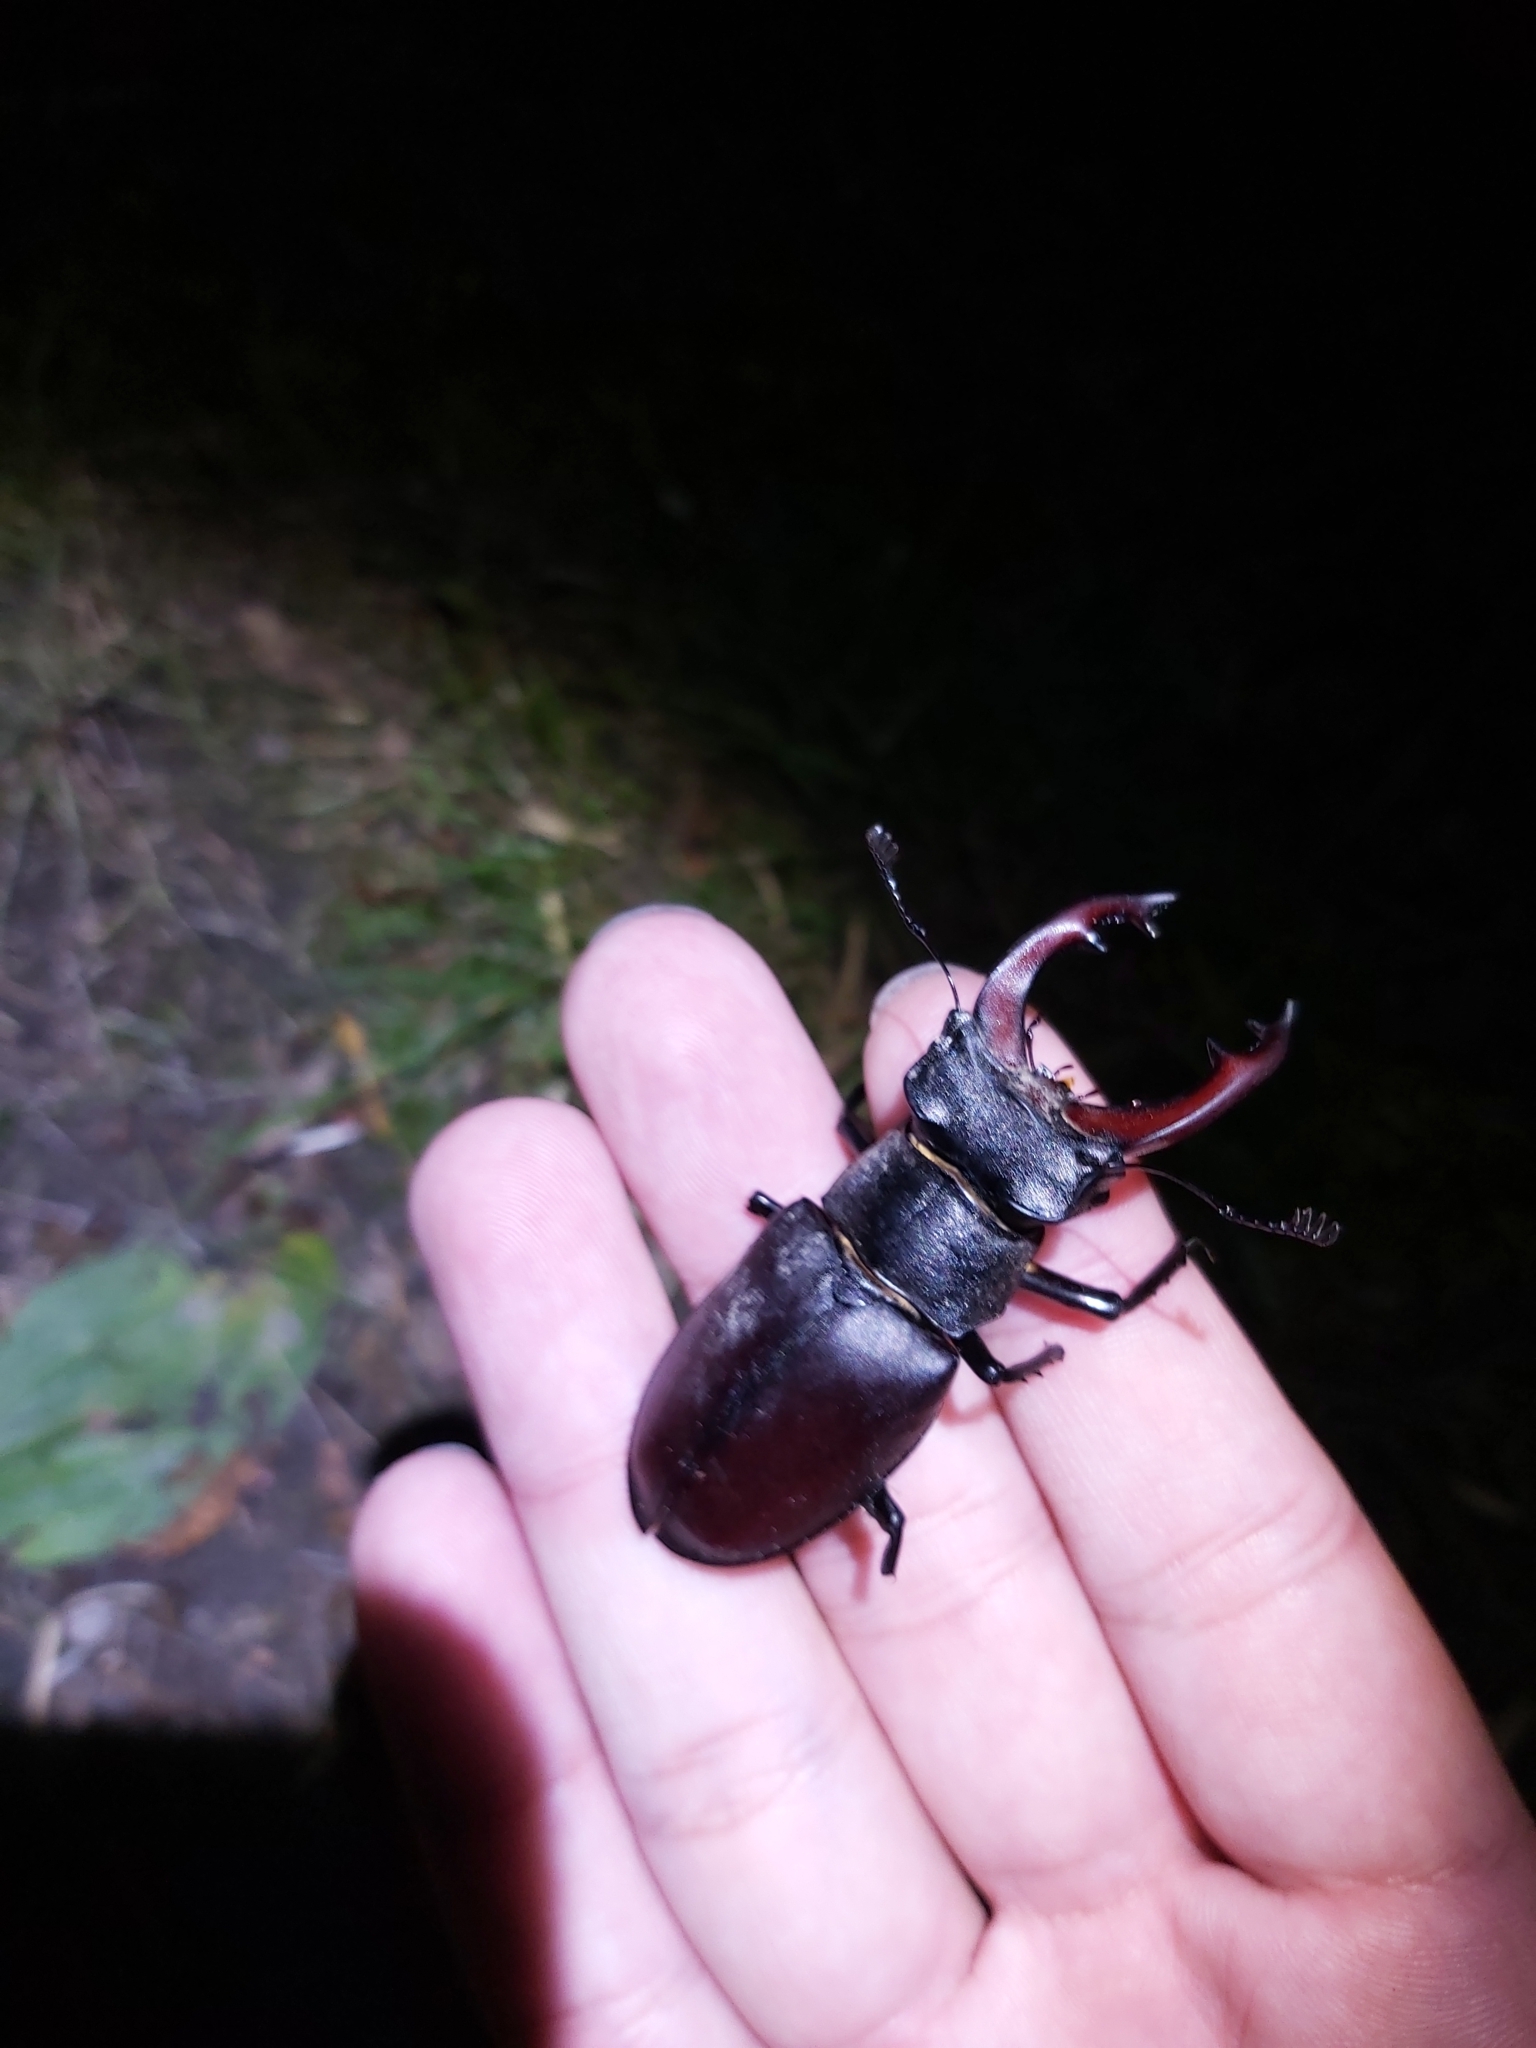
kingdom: Animalia
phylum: Arthropoda
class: Insecta
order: Coleoptera
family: Lucanidae
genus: Lucanus
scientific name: Lucanus cervus
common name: Stag beetle
